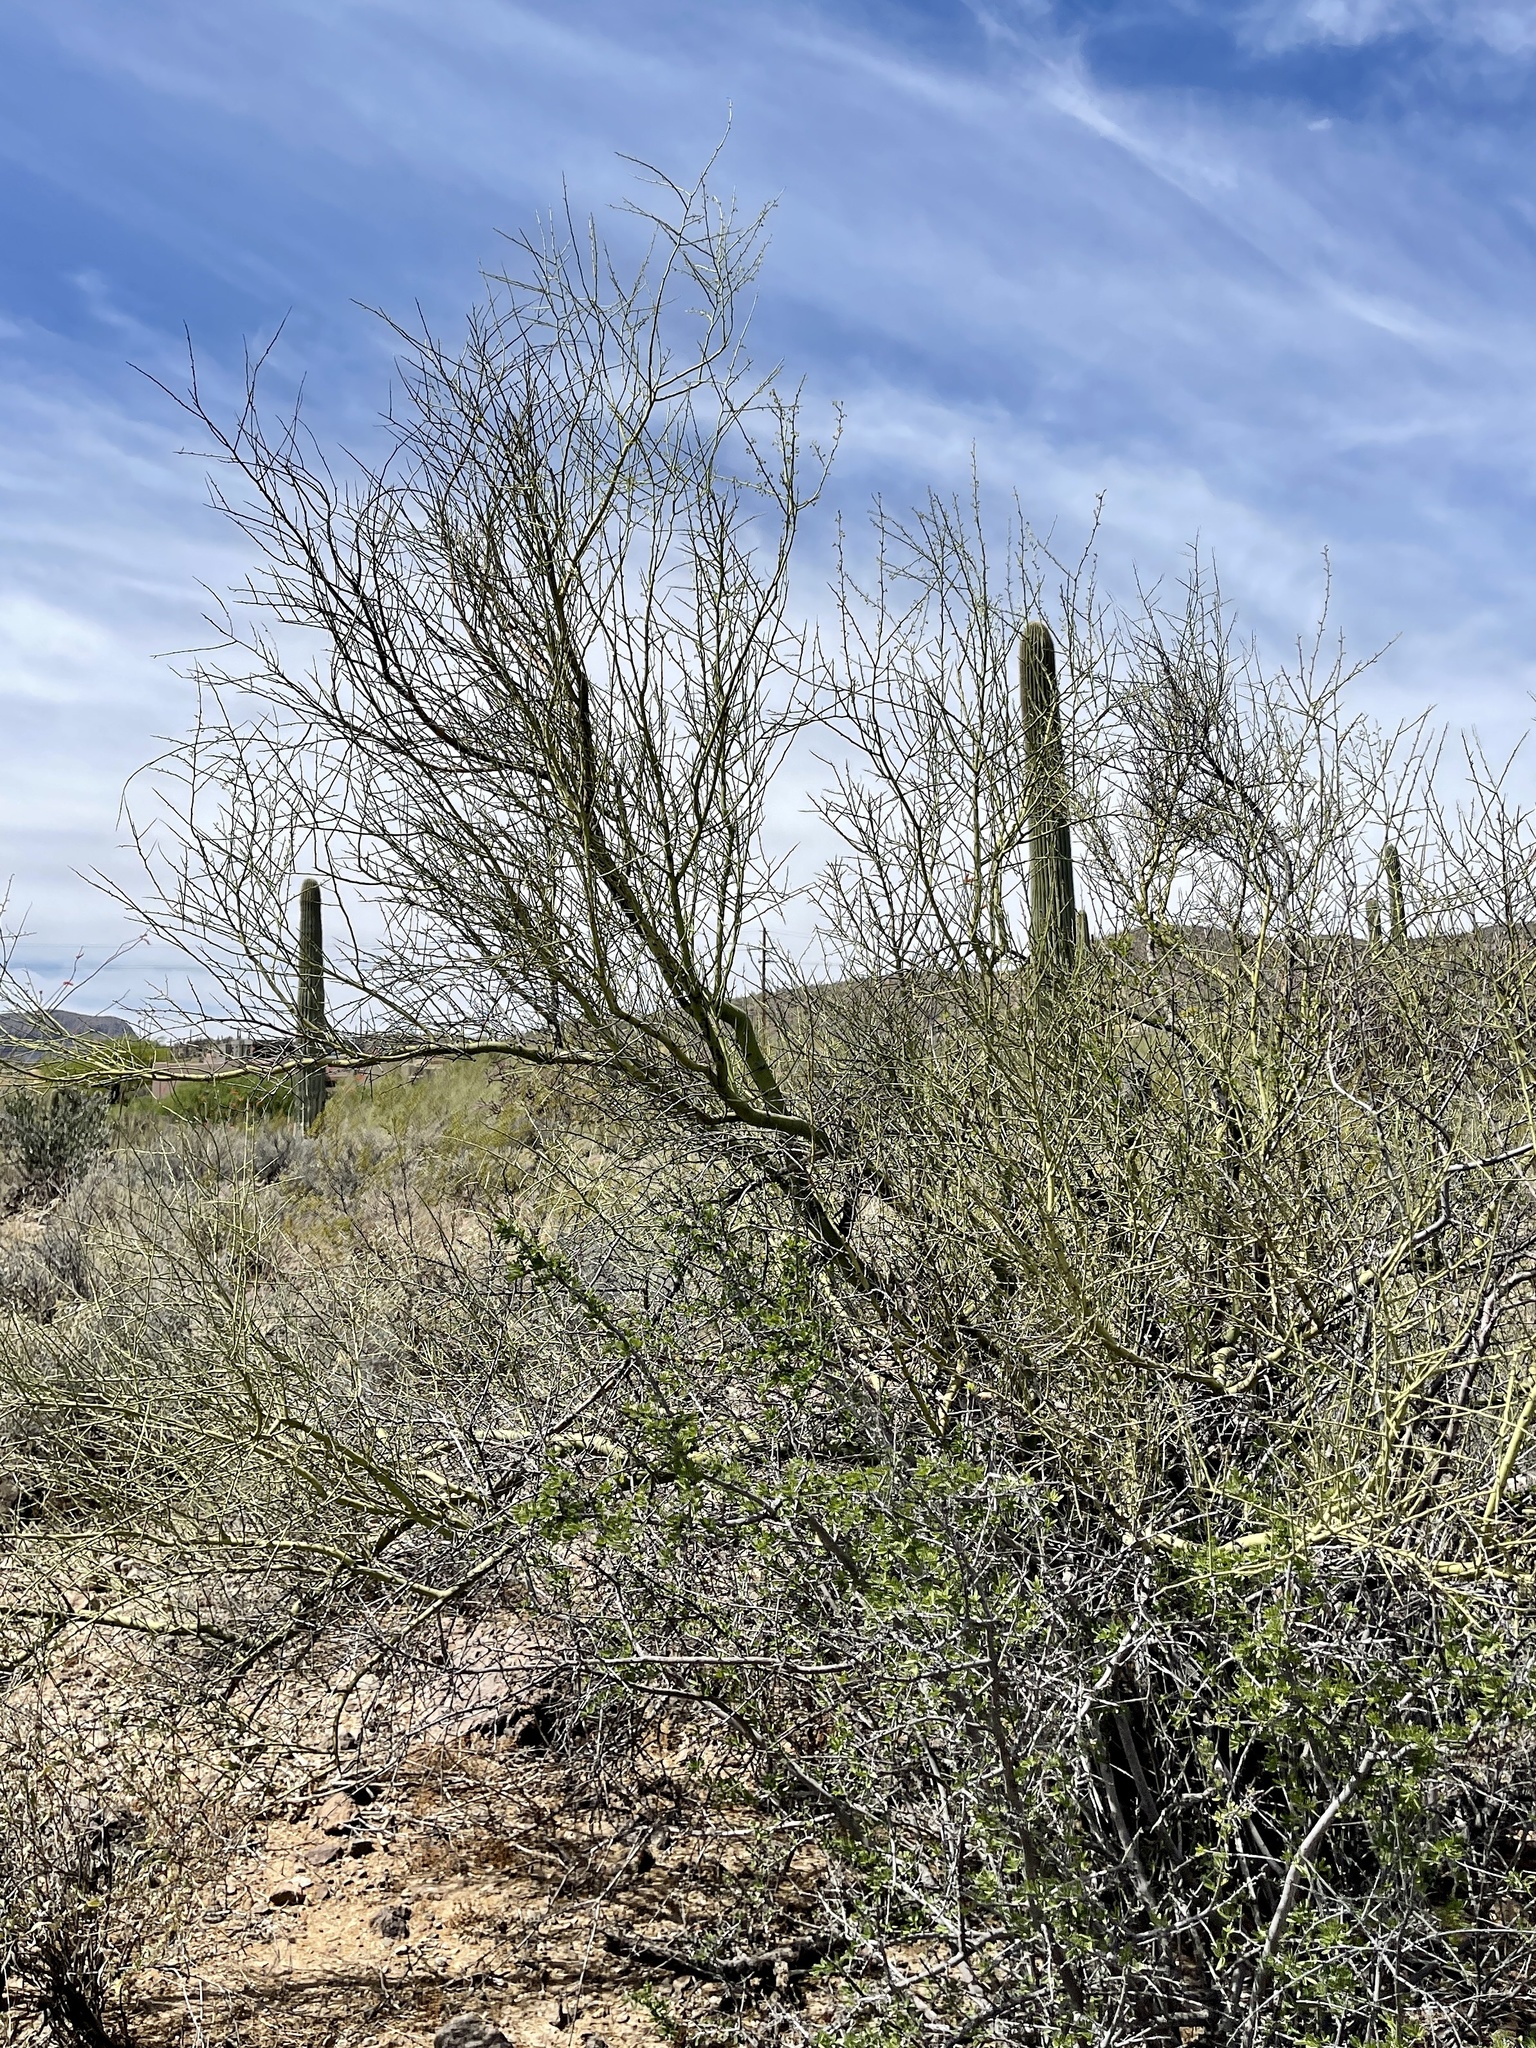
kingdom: Plantae
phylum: Tracheophyta
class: Magnoliopsida
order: Fabales
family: Fabaceae
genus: Parkinsonia
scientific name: Parkinsonia microphylla
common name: Yellow paloverde
